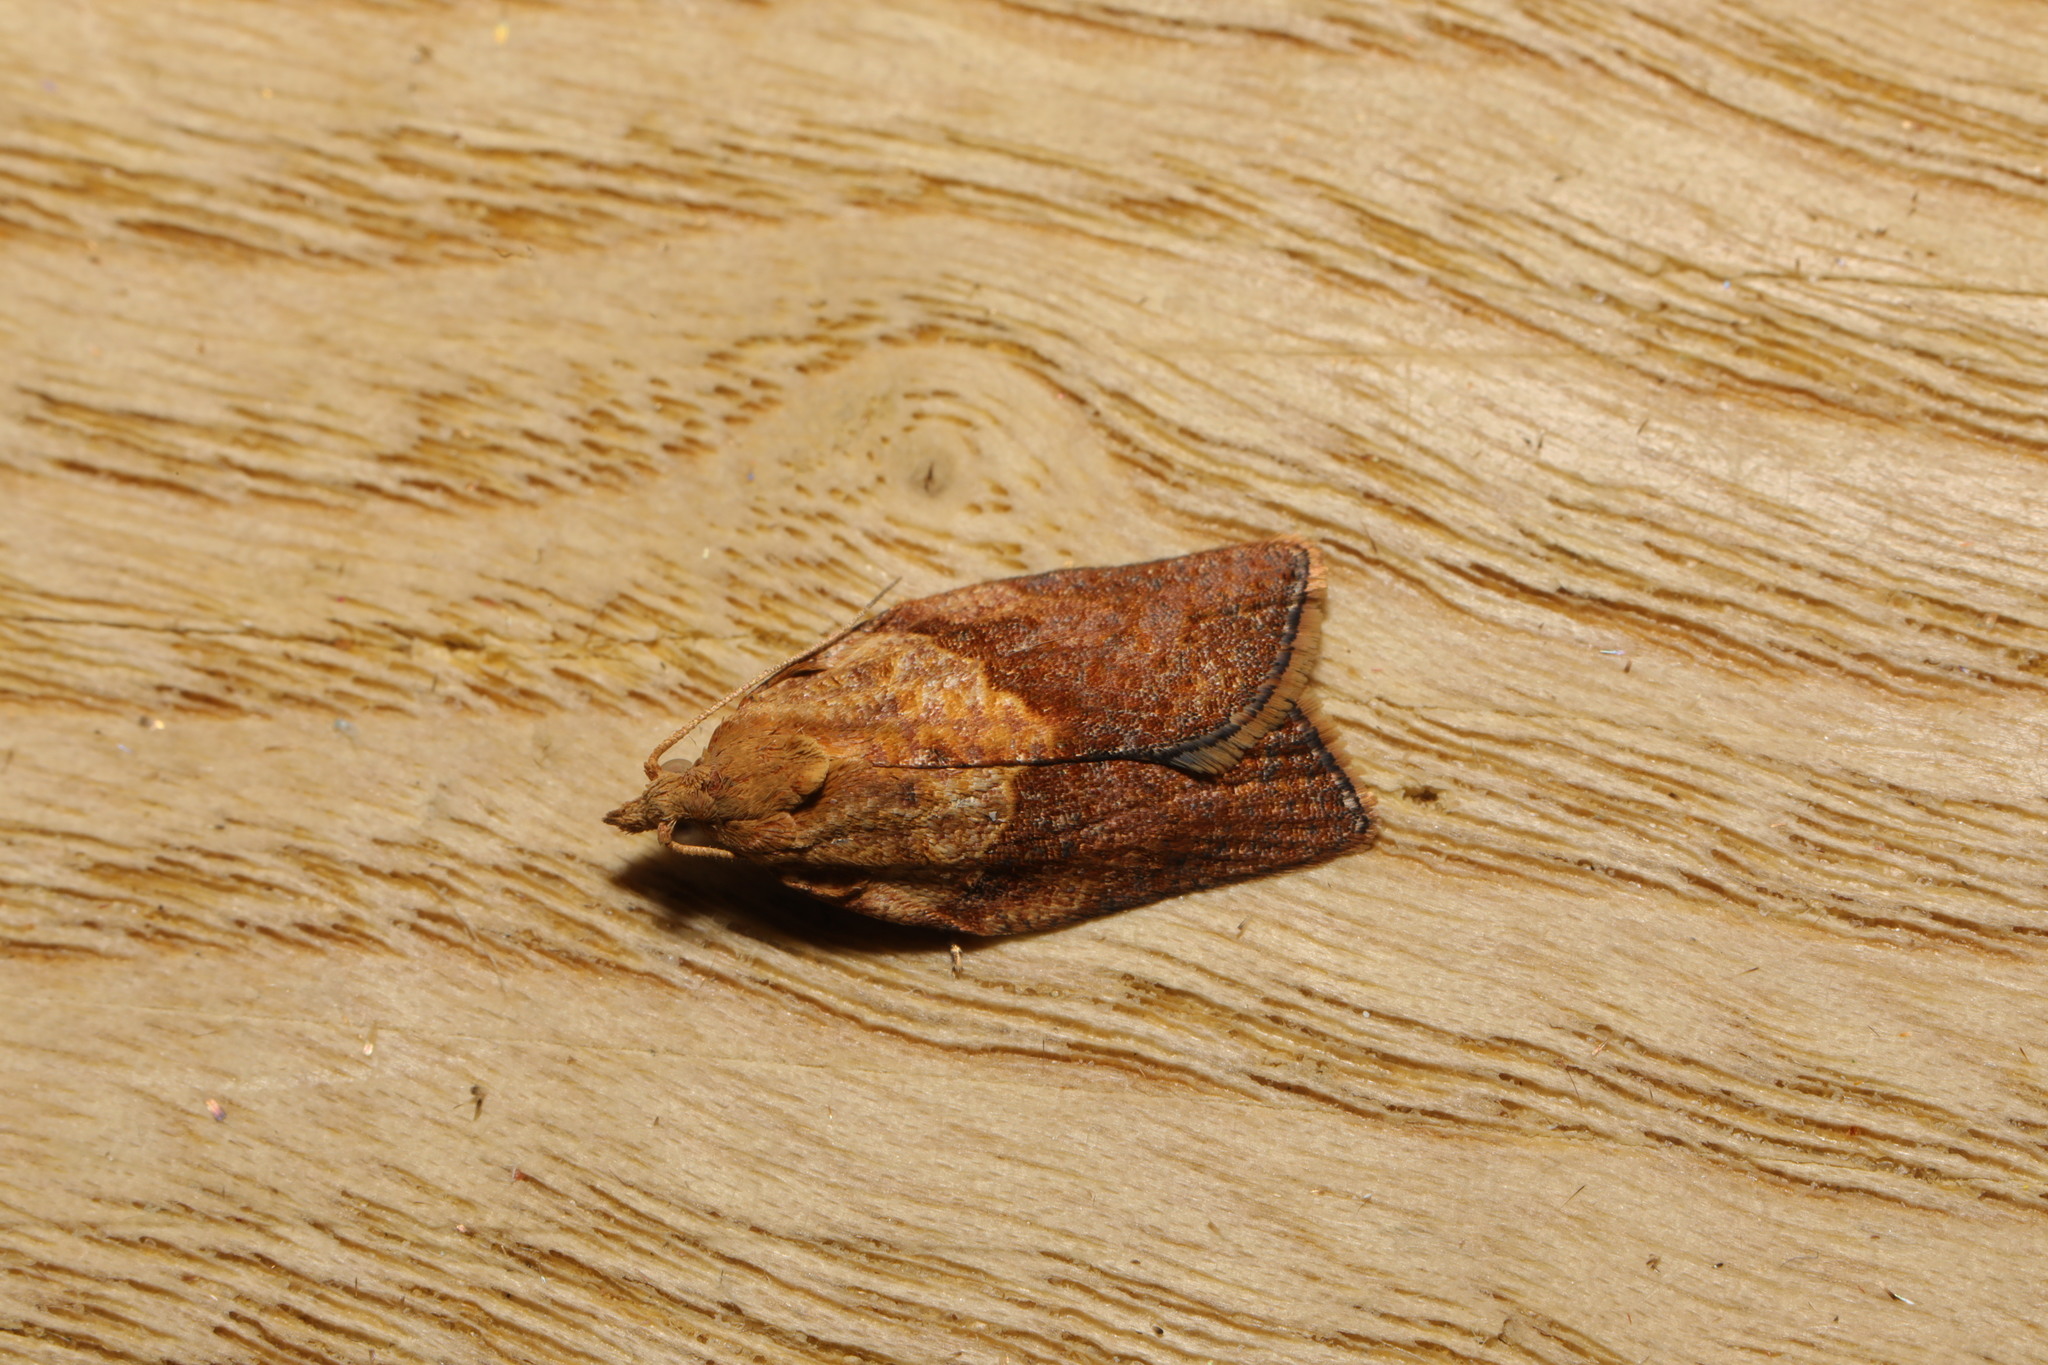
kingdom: Animalia
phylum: Arthropoda
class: Insecta
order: Lepidoptera
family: Tortricidae
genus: Epiphyas
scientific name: Epiphyas postvittana
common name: Light brown apple moth
